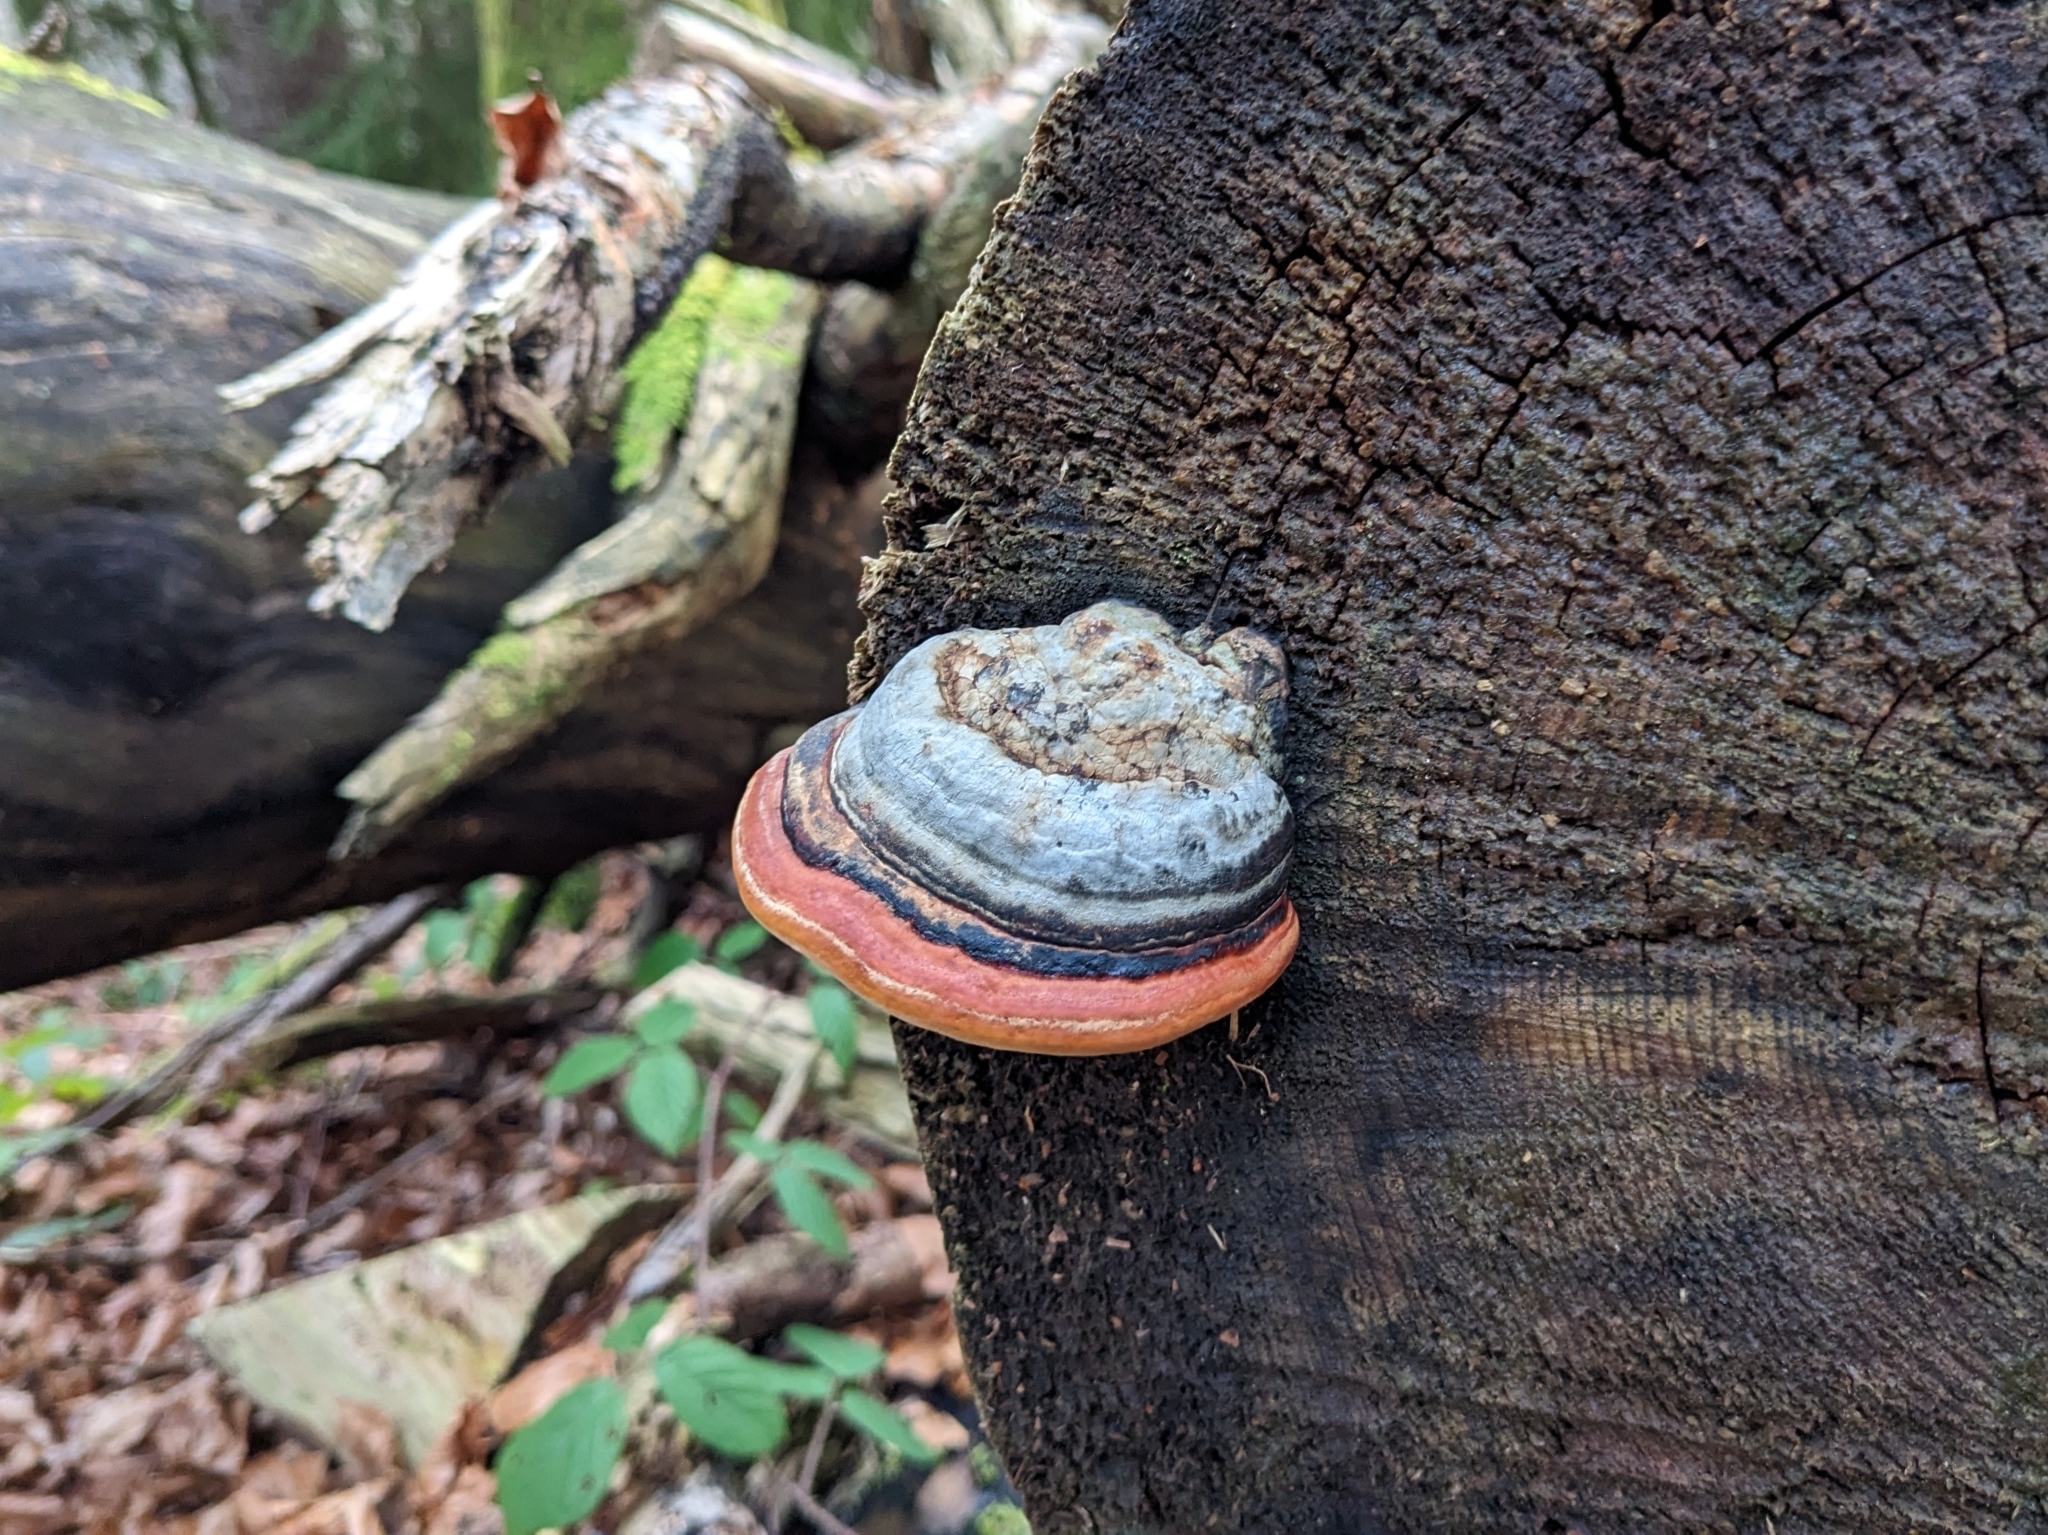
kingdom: Fungi
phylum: Basidiomycota
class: Agaricomycetes
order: Polyporales
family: Fomitopsidaceae
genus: Fomitopsis
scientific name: Fomitopsis pinicola
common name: Red-belted bracket
